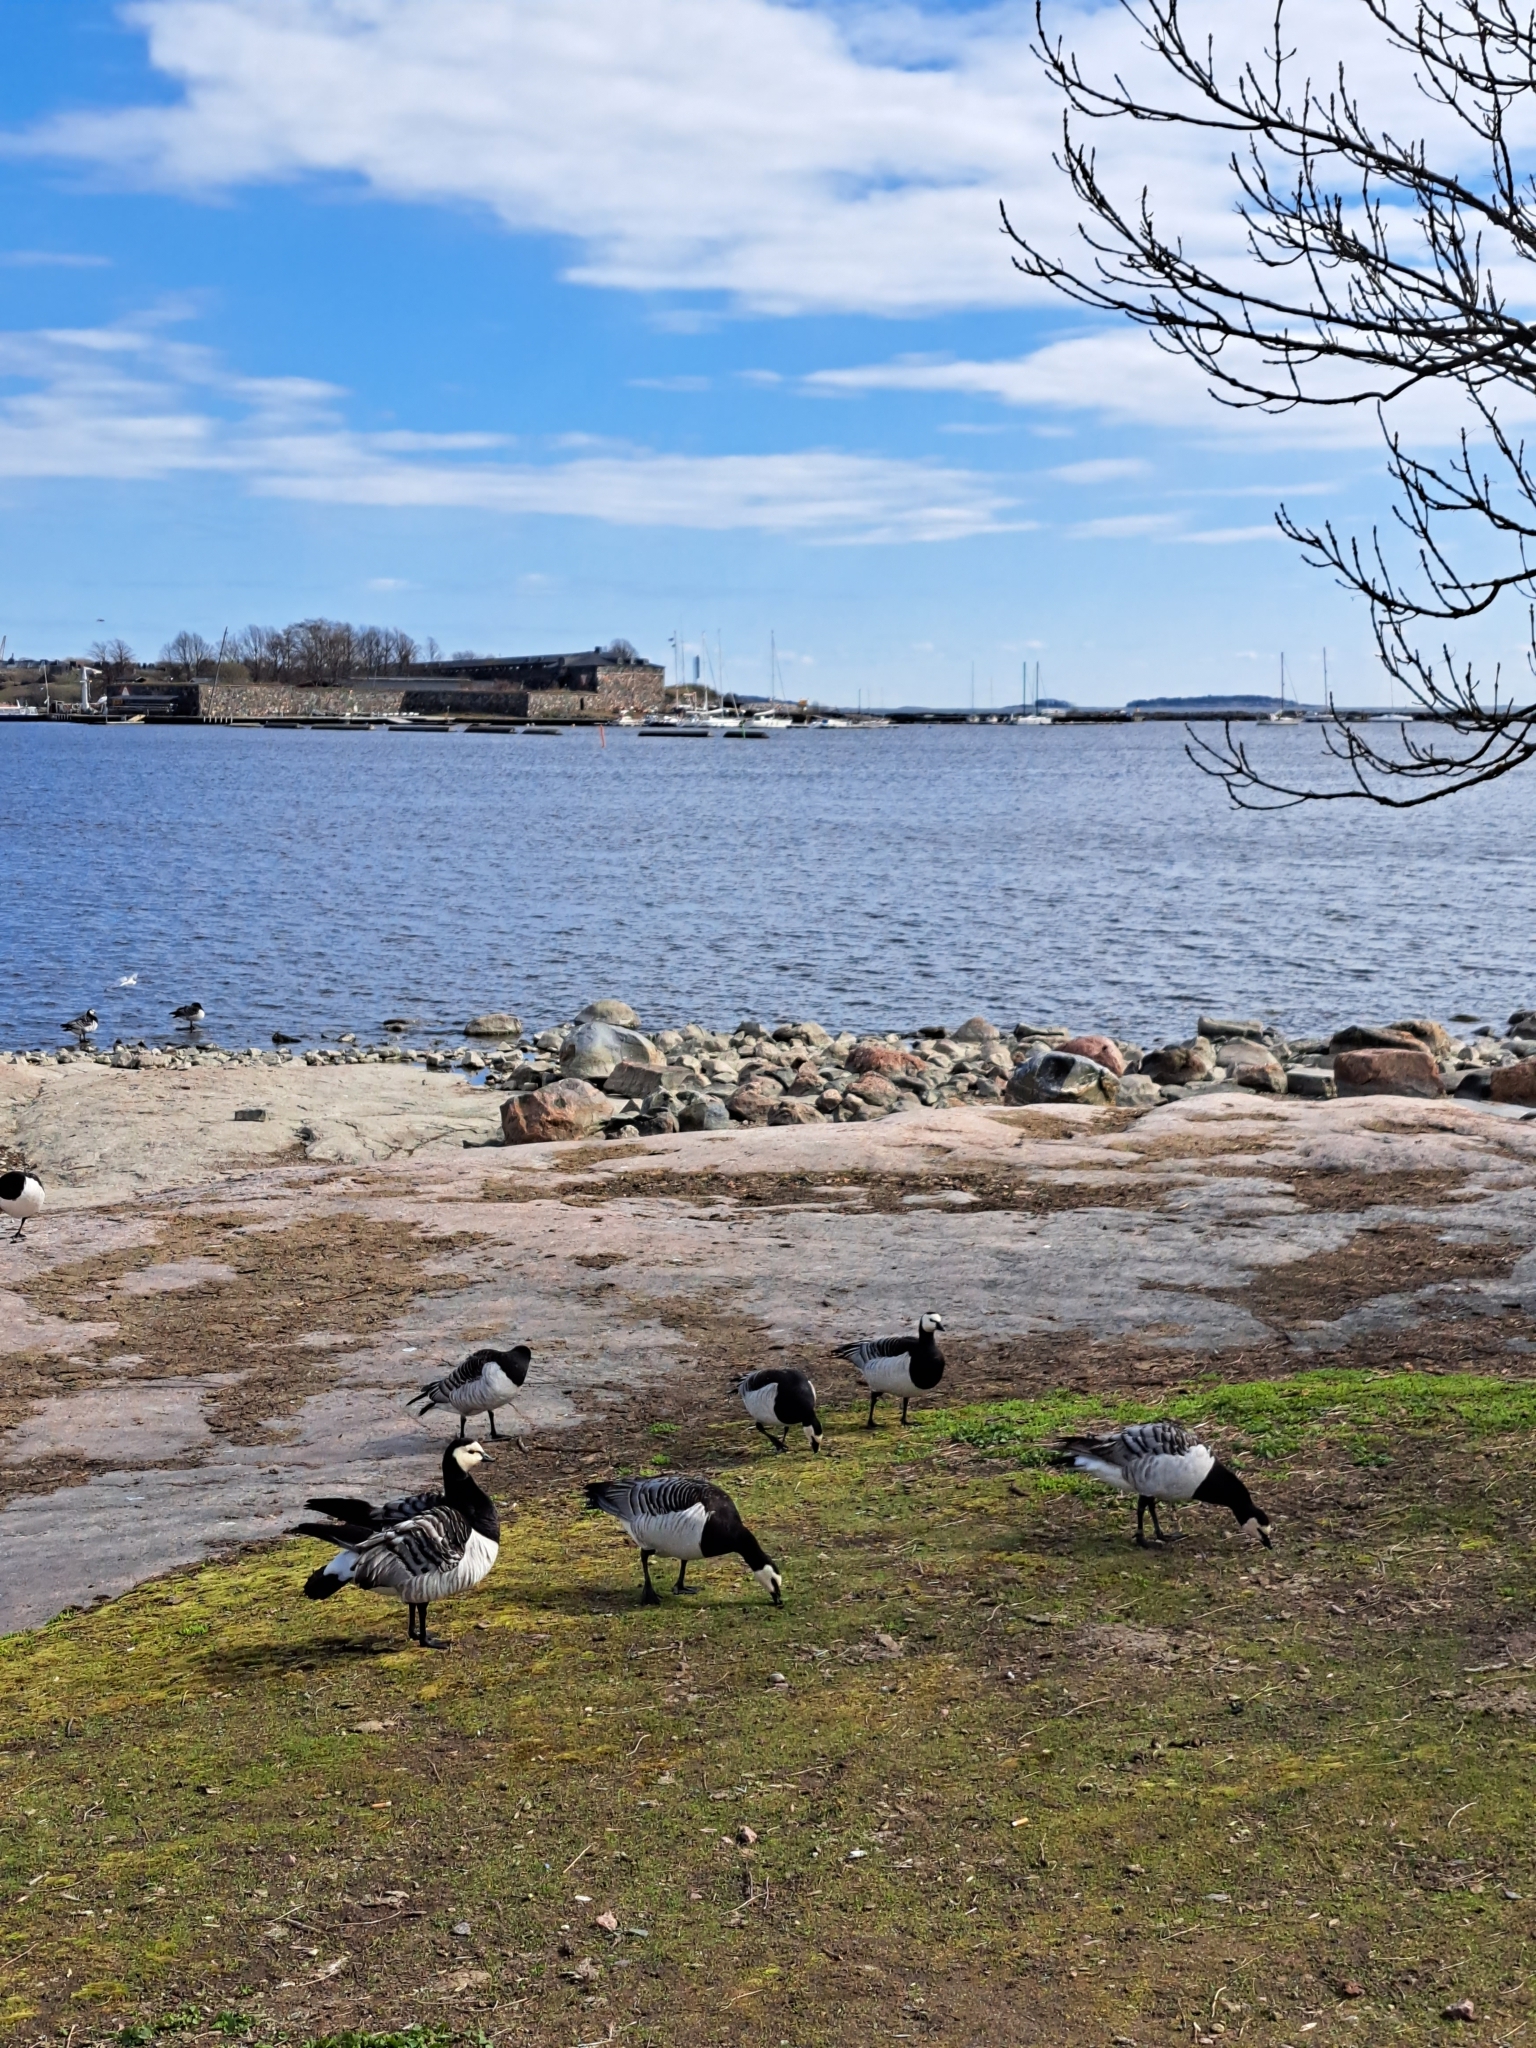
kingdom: Animalia
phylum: Chordata
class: Aves
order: Anseriformes
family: Anatidae
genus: Branta
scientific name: Branta leucopsis
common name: Barnacle goose
